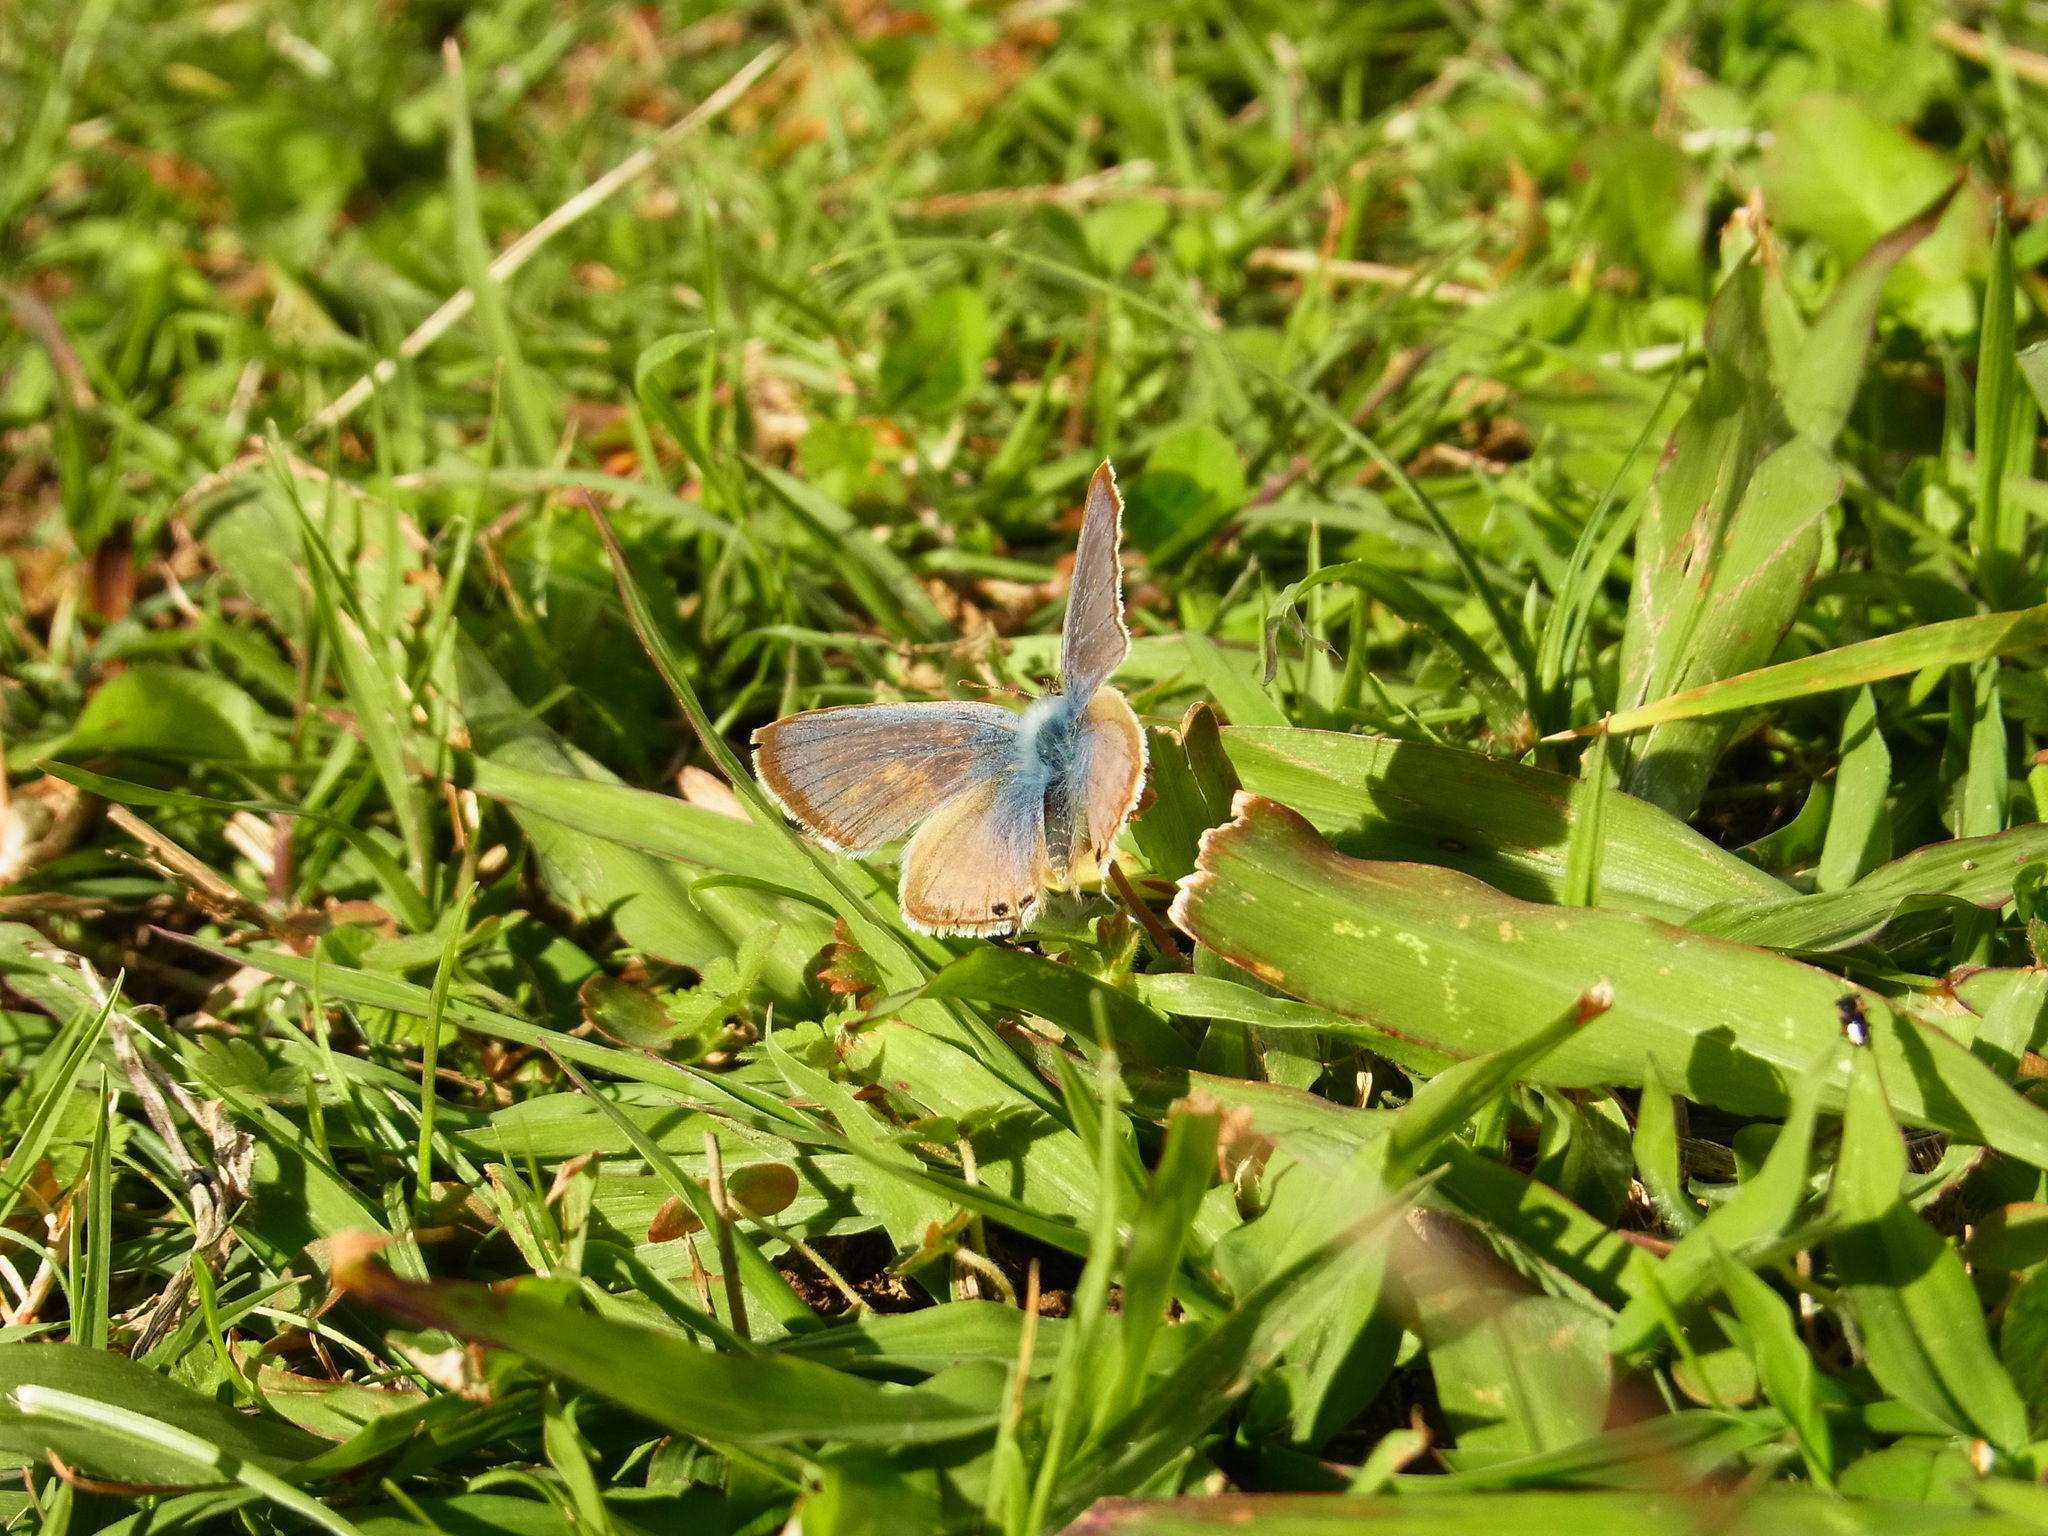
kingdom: Animalia
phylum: Arthropoda
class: Insecta
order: Lepidoptera
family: Lycaenidae
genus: Lampides
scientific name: Lampides boeticus
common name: Long-tailed blue
